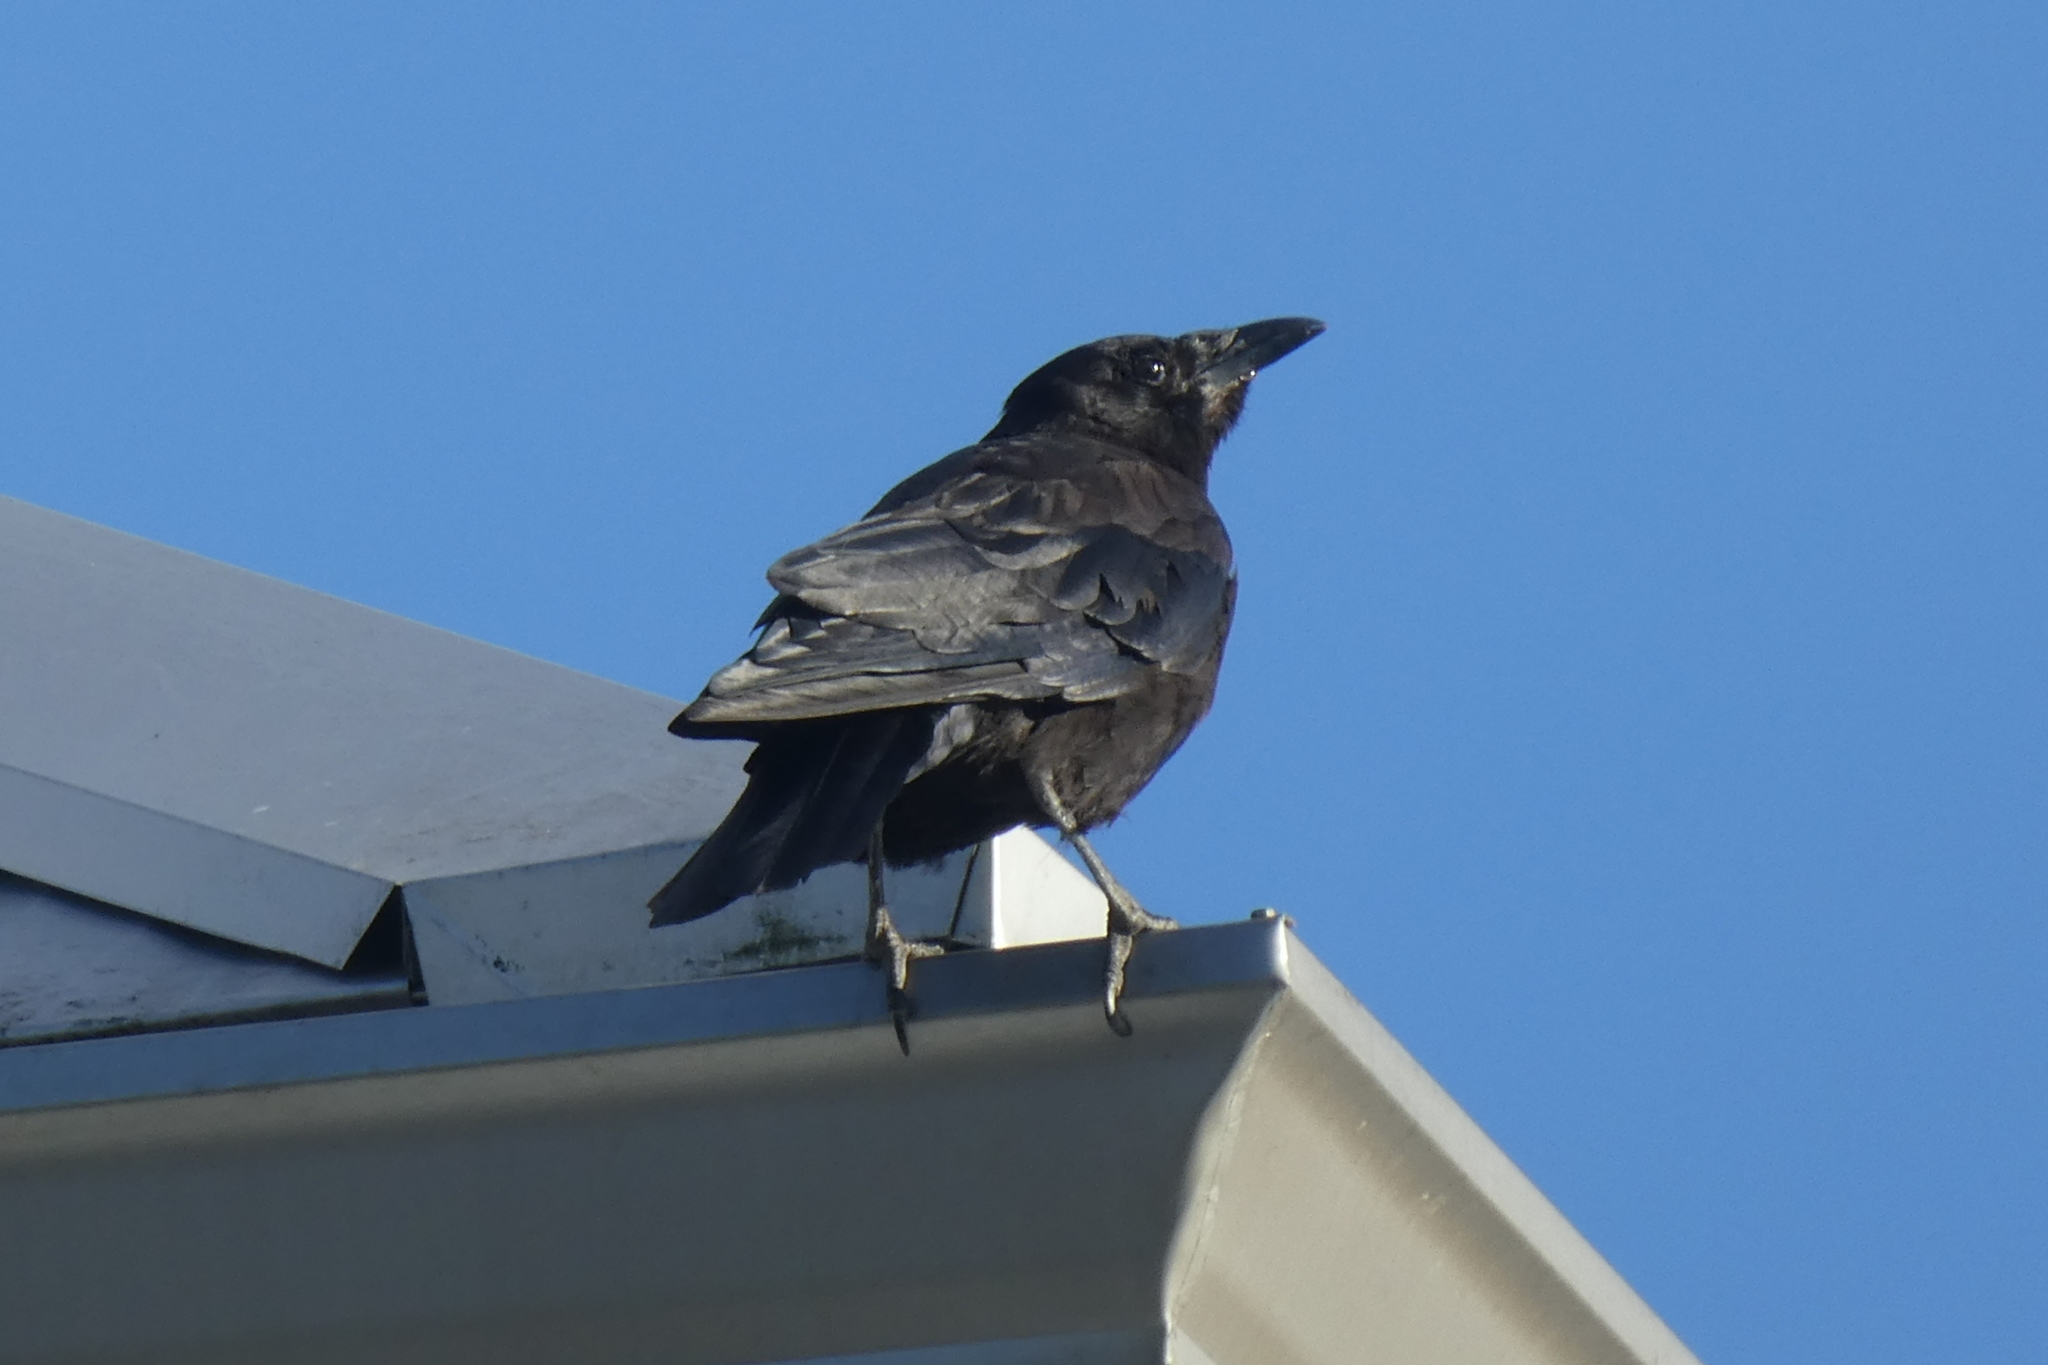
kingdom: Animalia
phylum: Chordata
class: Aves
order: Passeriformes
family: Corvidae
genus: Corvus
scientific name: Corvus brachyrhynchos
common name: American crow
